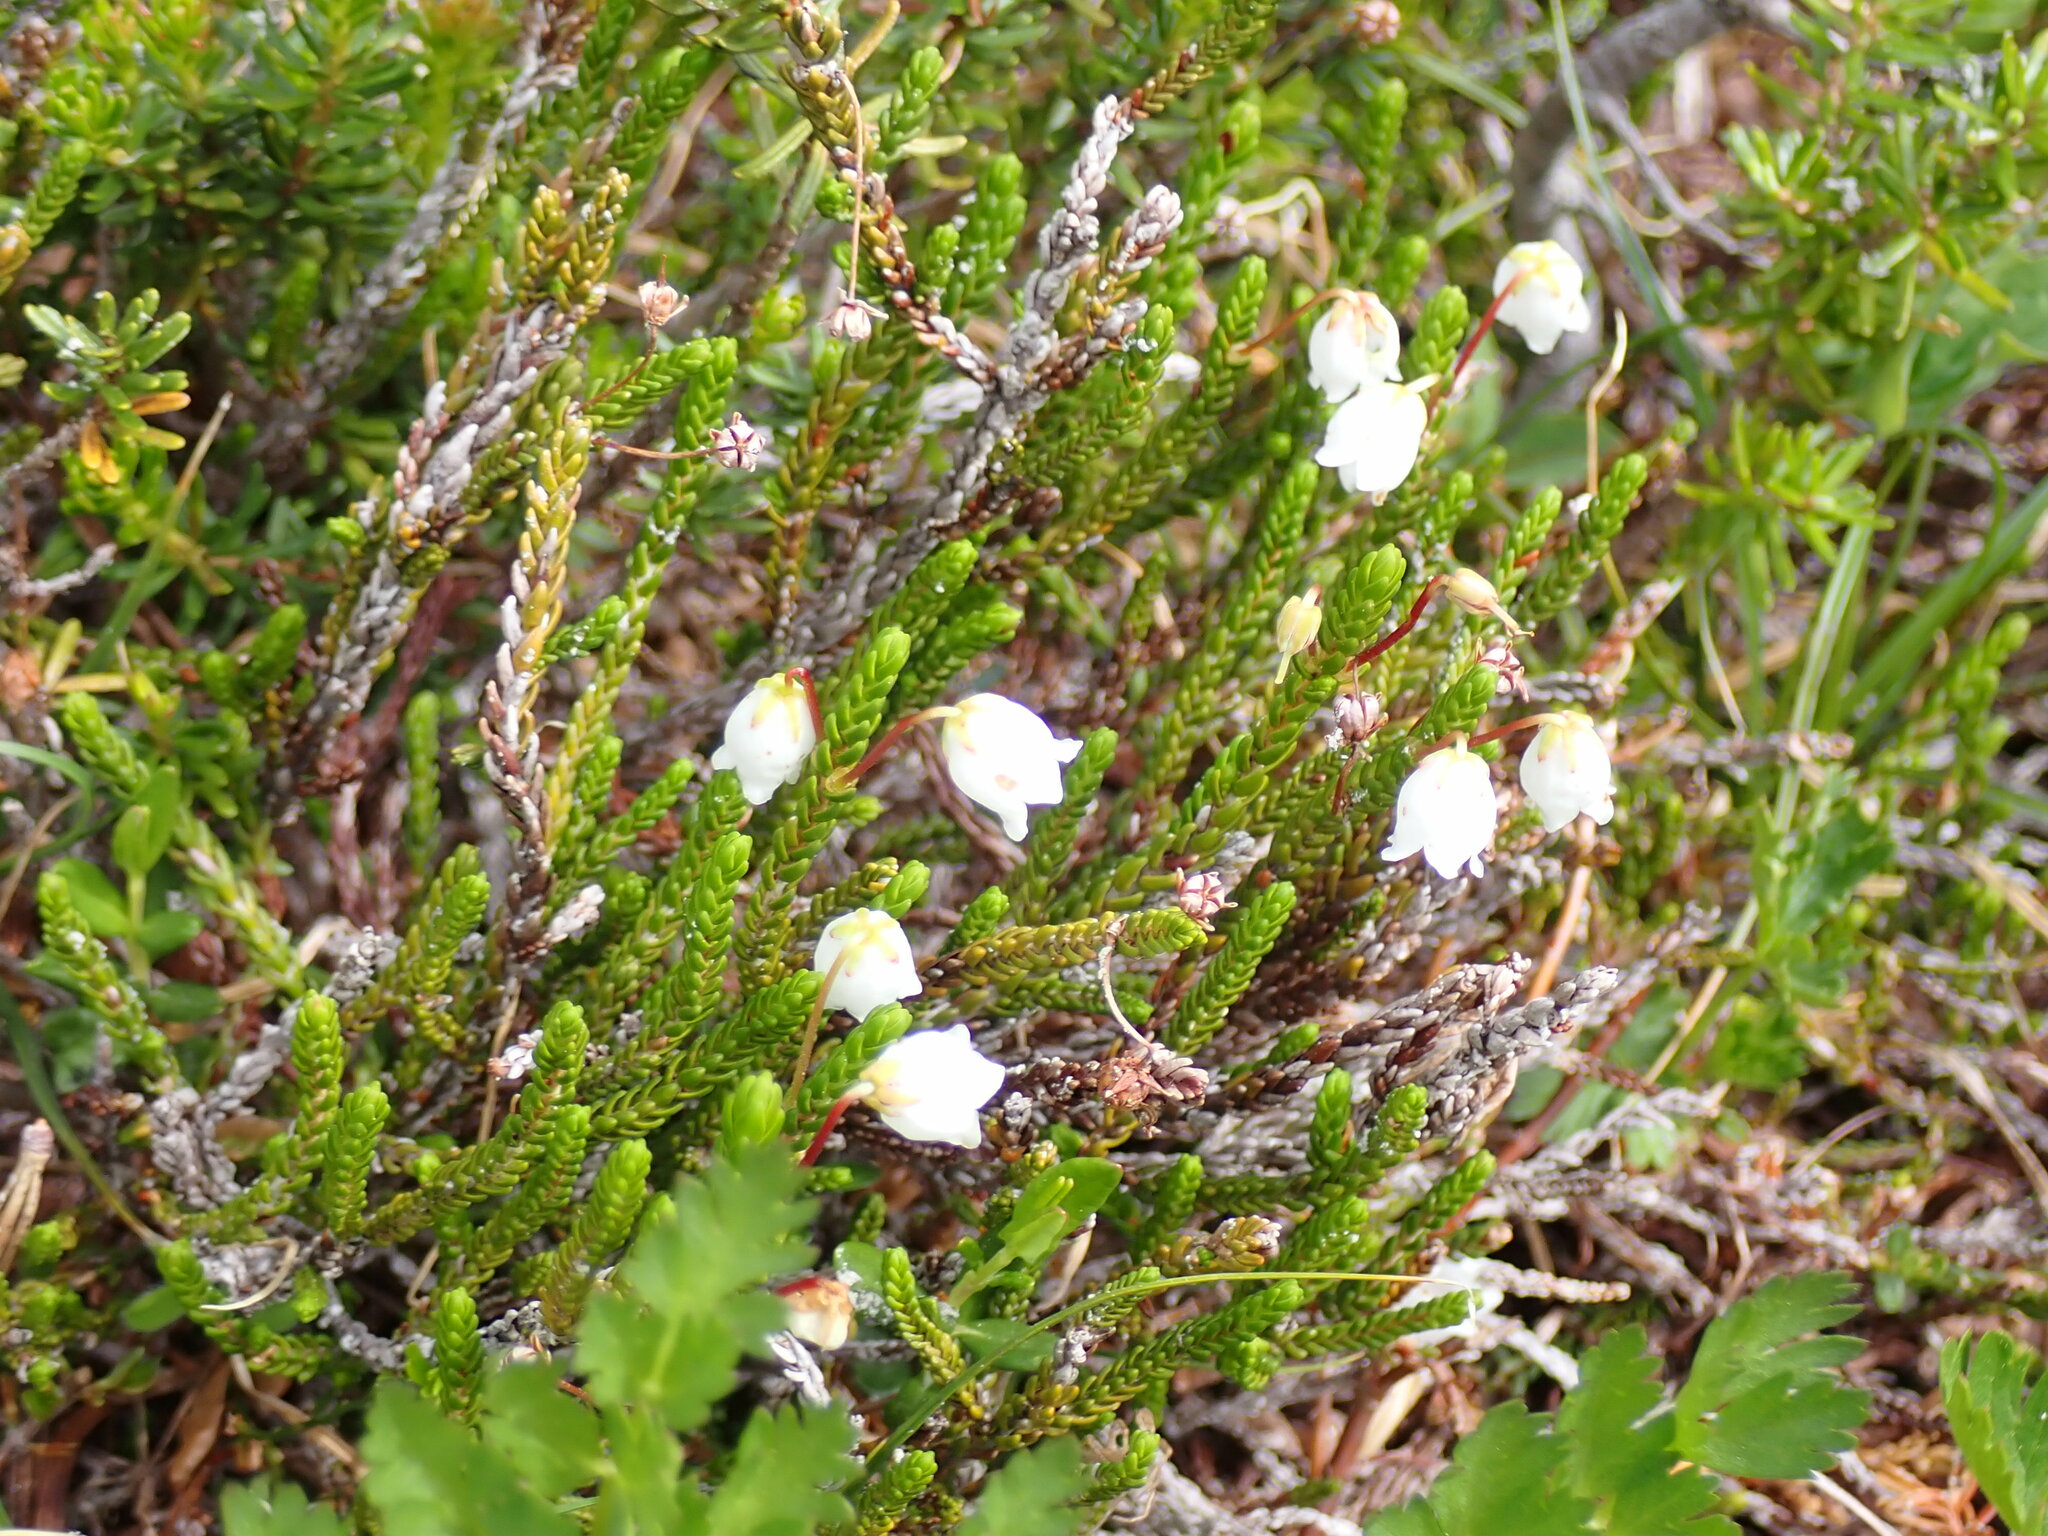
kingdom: Plantae
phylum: Tracheophyta
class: Magnoliopsida
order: Ericales
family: Ericaceae
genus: Cassiope
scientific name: Cassiope mertensiana
